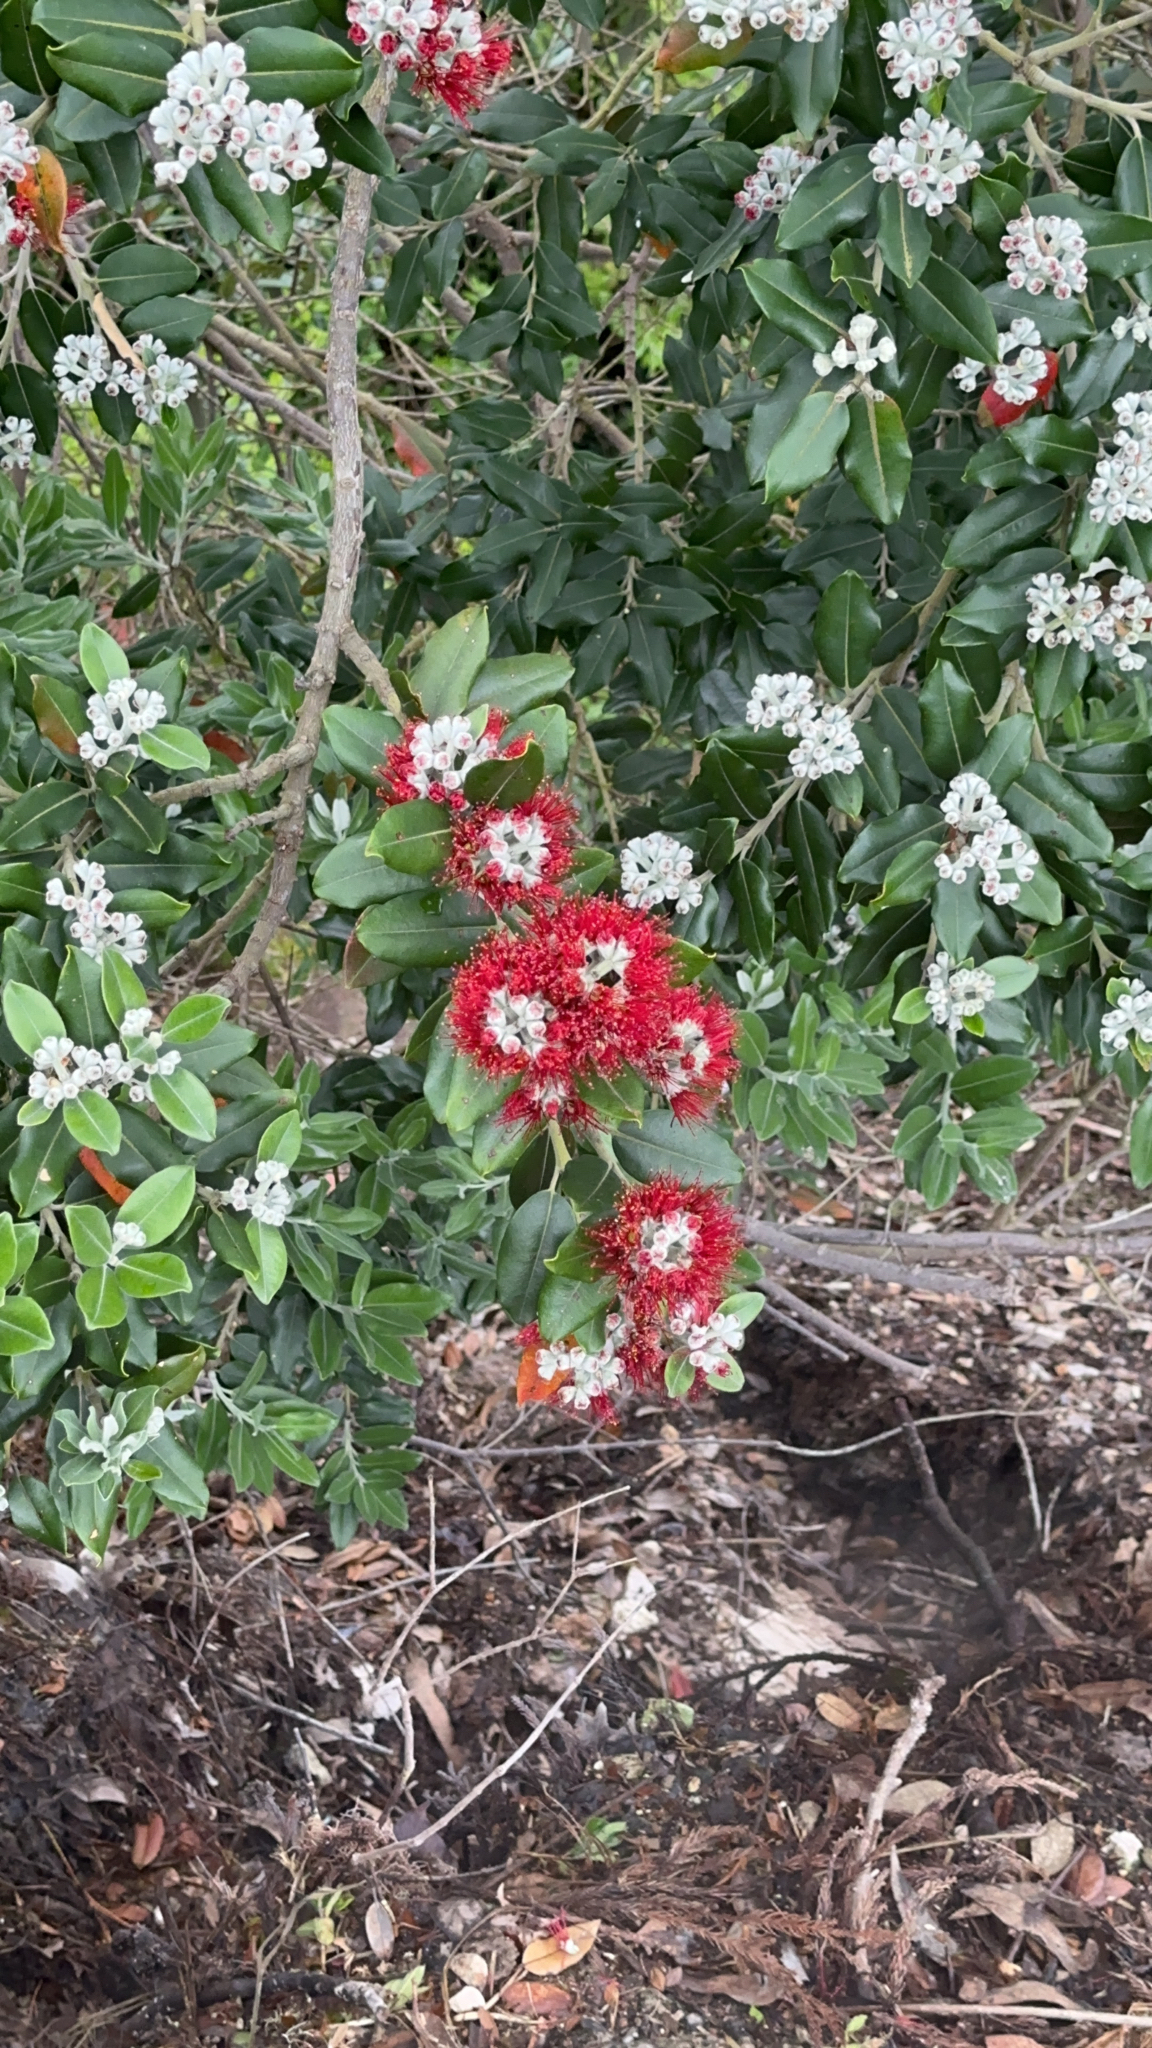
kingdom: Plantae
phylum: Tracheophyta
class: Magnoliopsida
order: Myrtales
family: Myrtaceae
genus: Metrosideros
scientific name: Metrosideros excelsa
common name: New zealand christmastree
